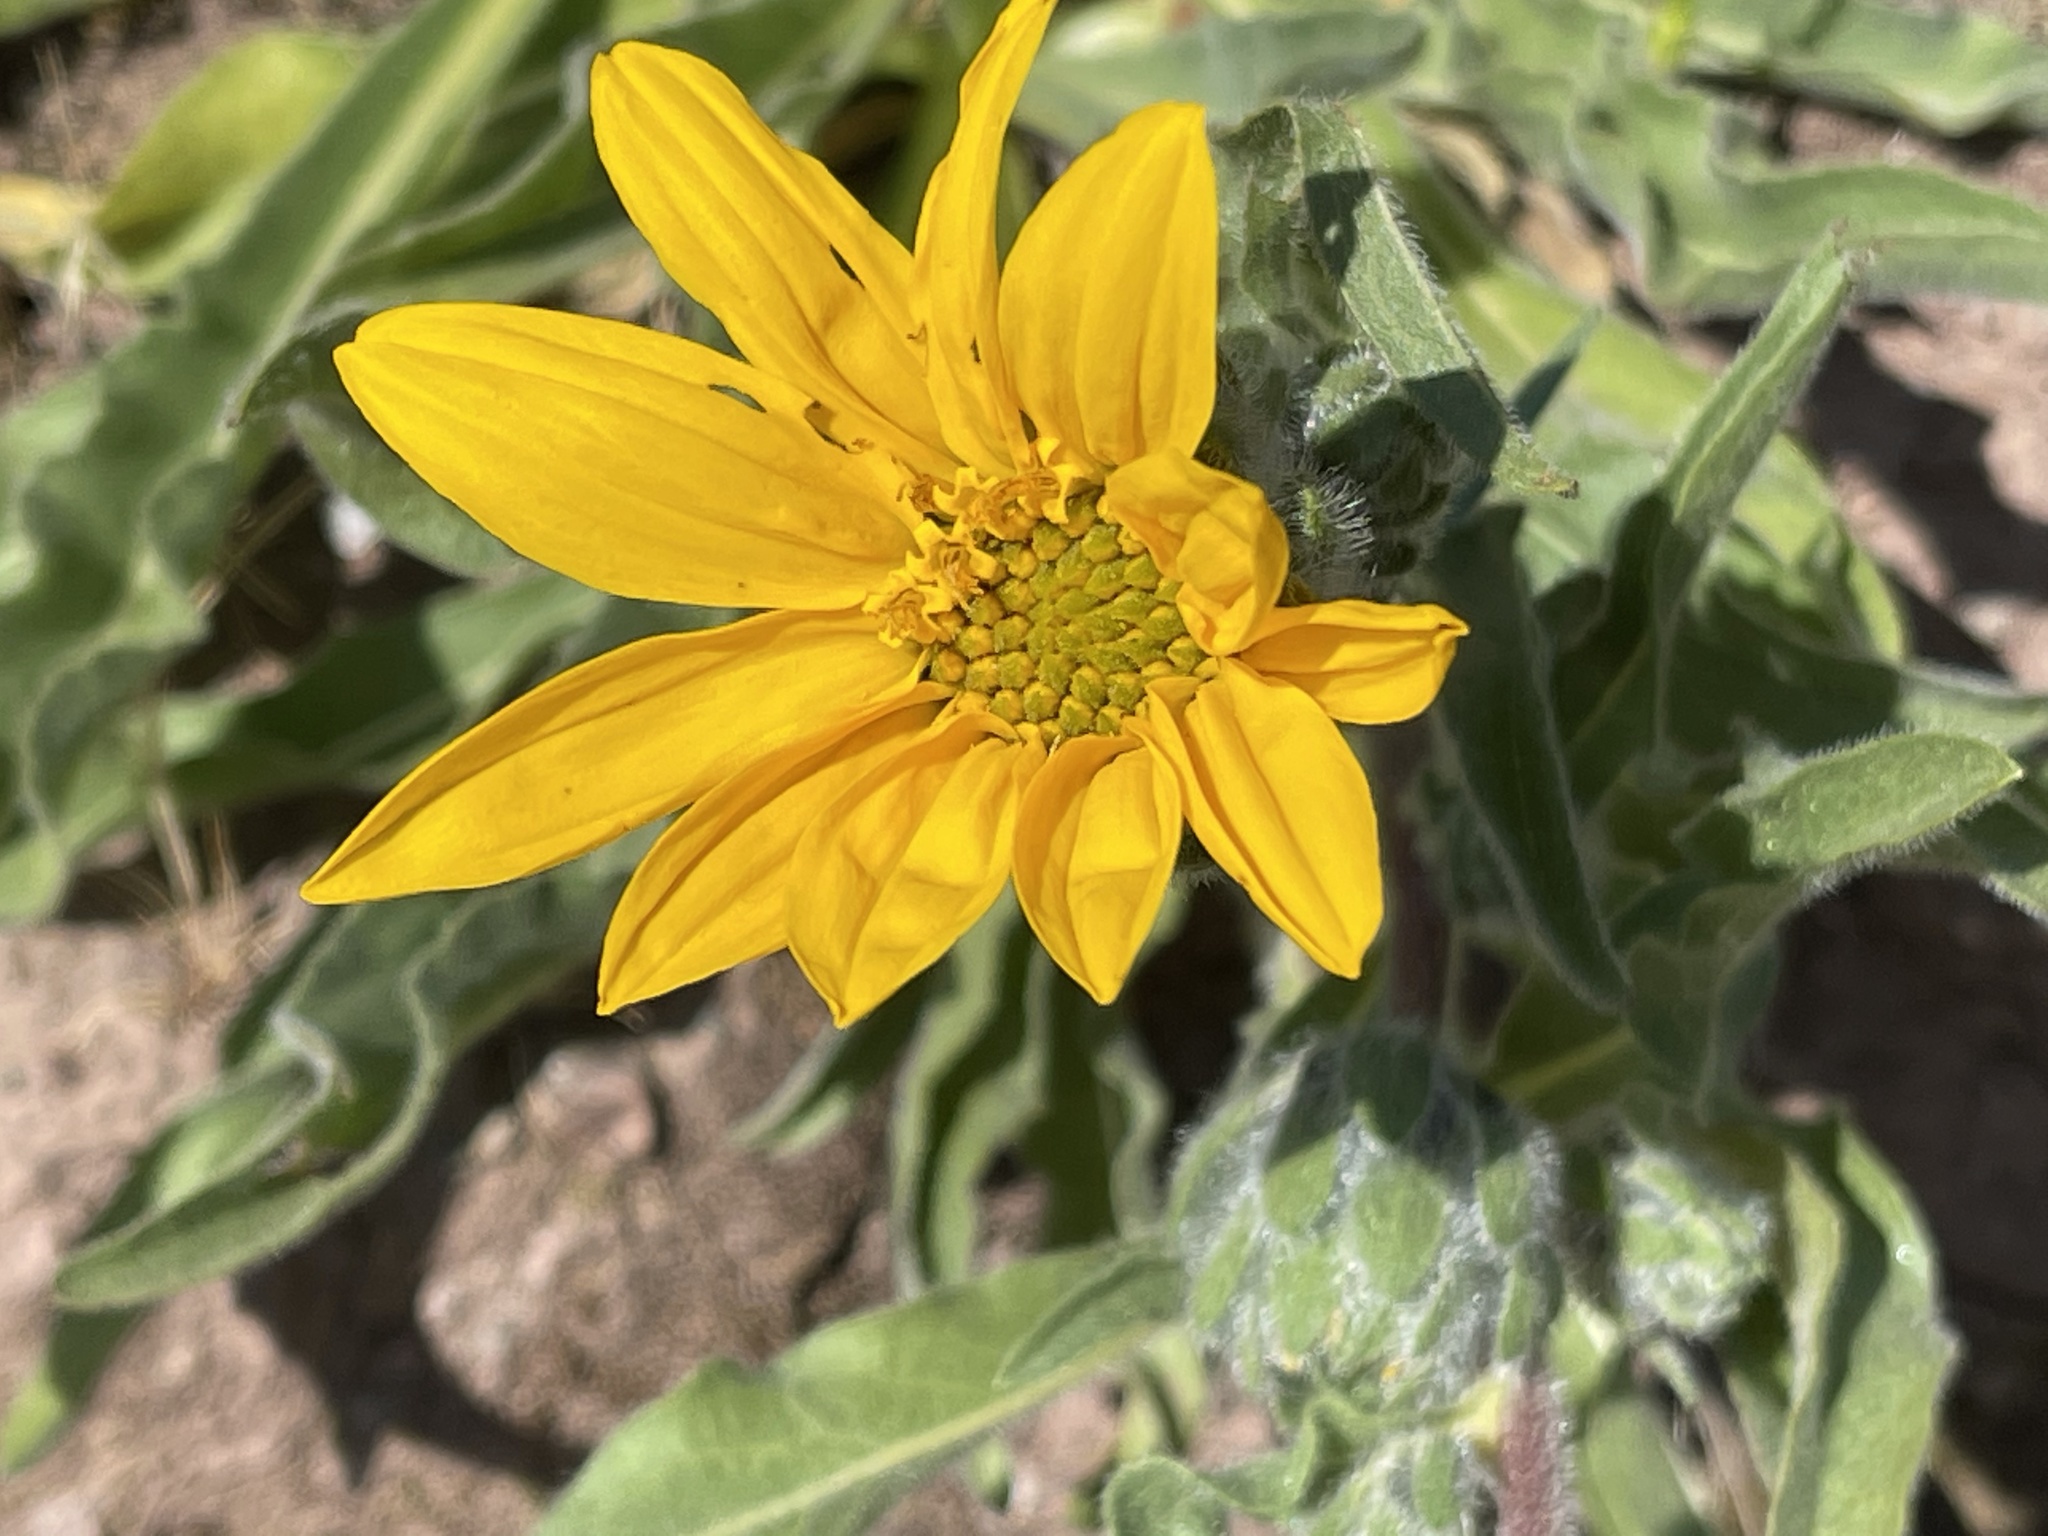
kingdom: Plantae
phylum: Tracheophyta
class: Magnoliopsida
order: Asterales
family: Asteraceae
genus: Wyethia
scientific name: Wyethia angustifolia
